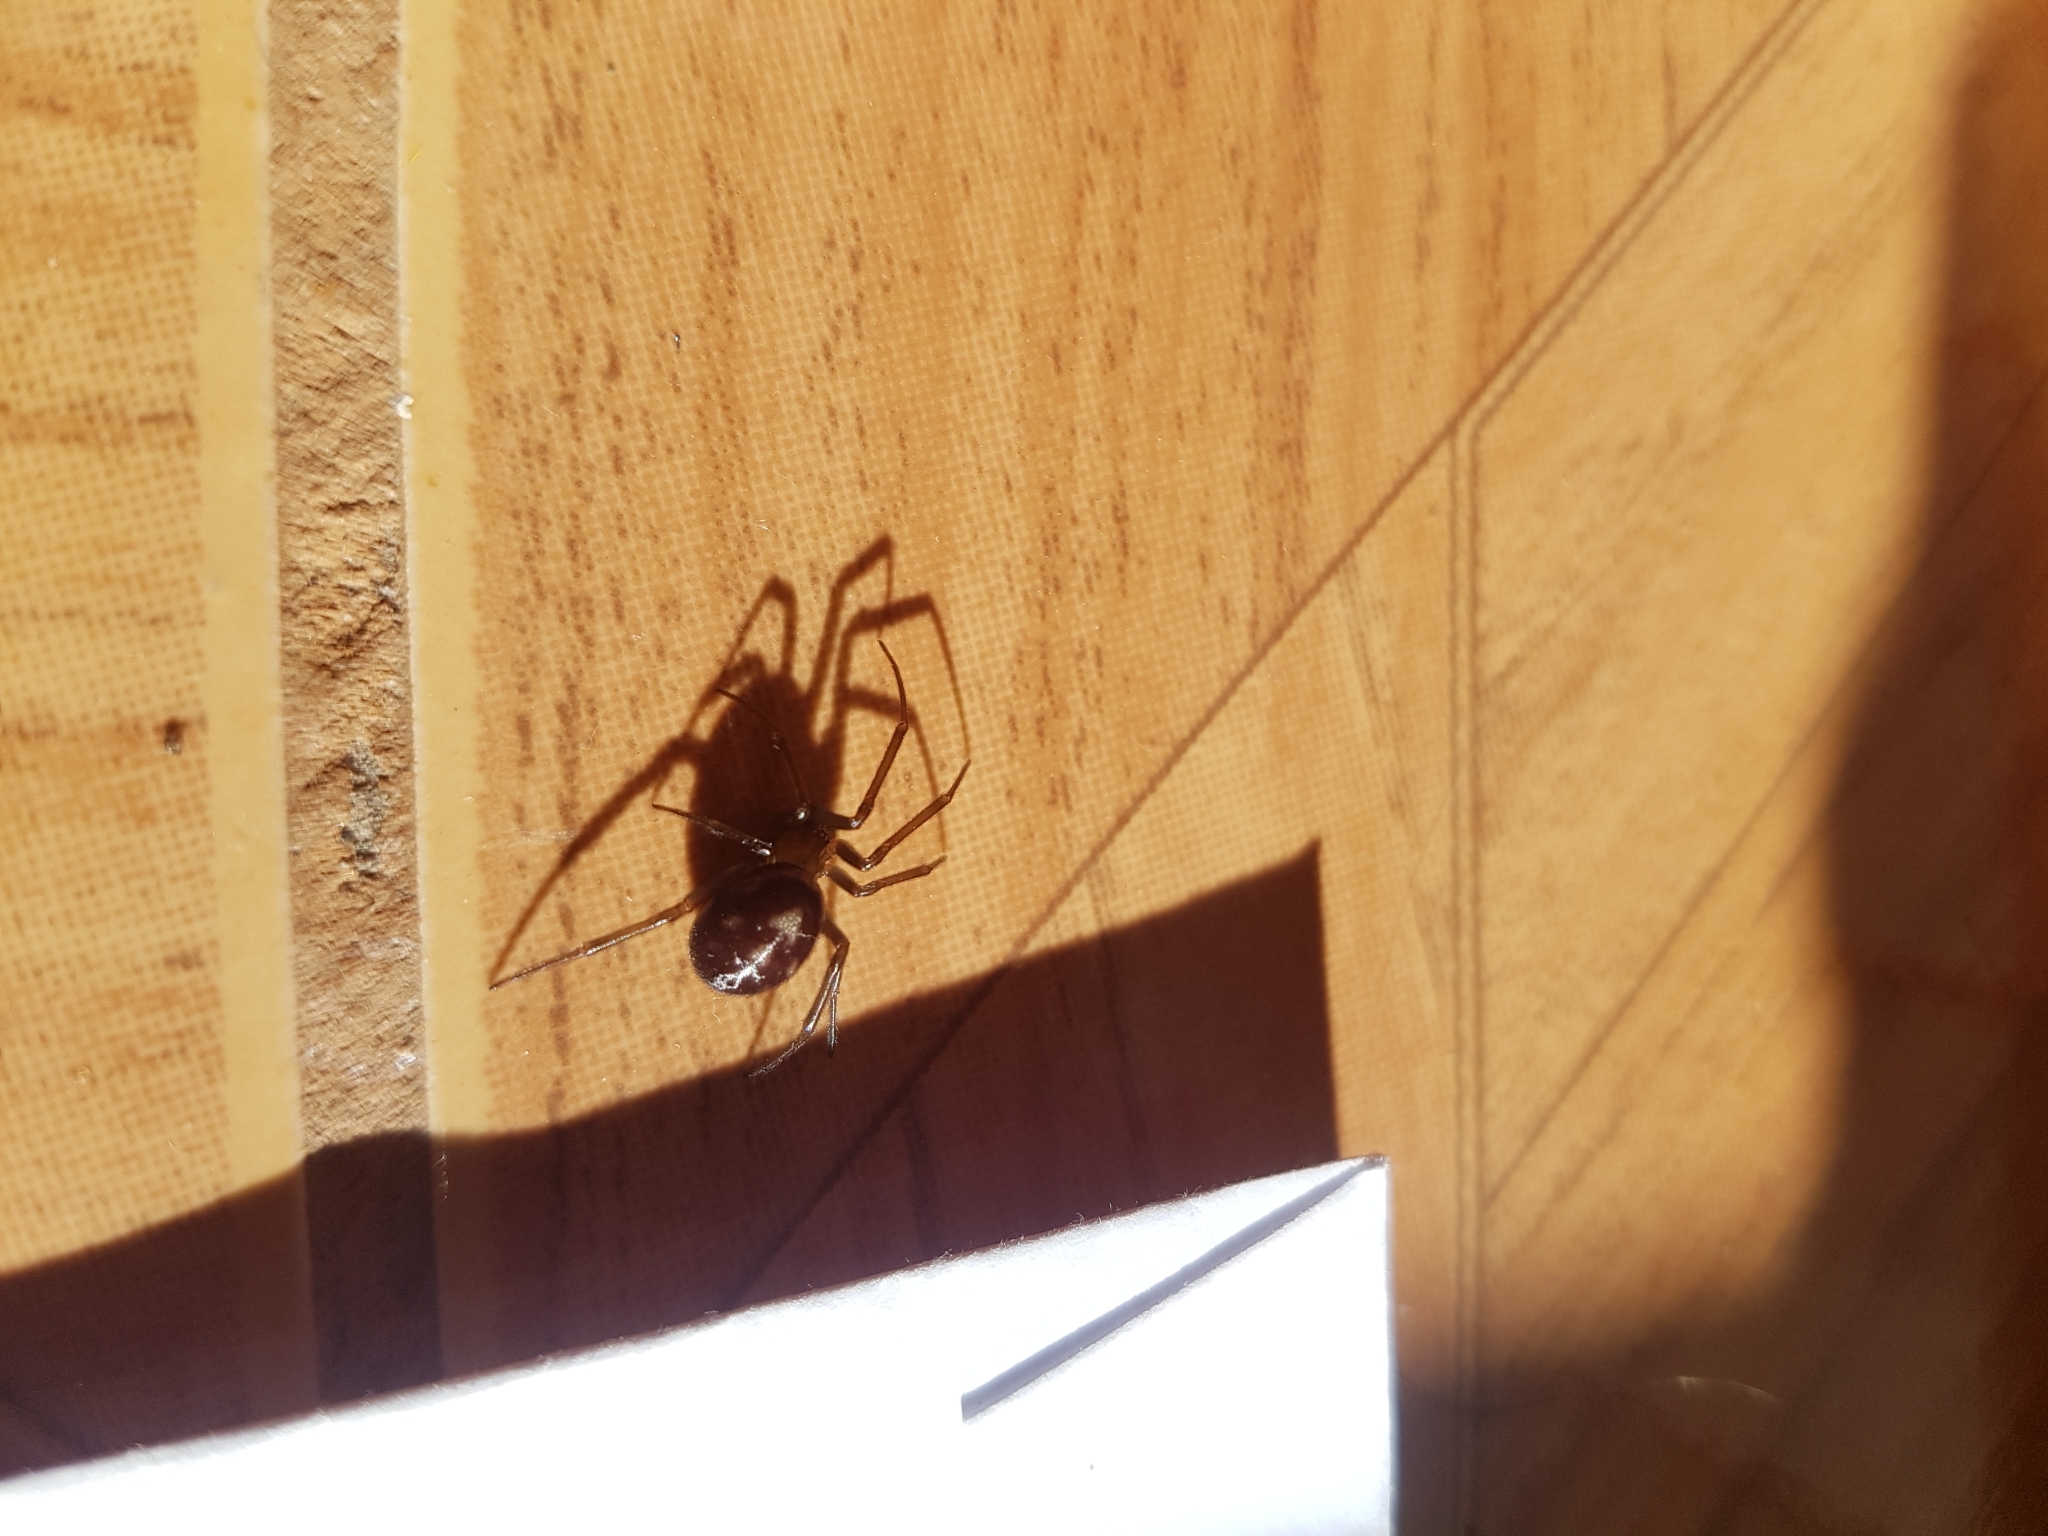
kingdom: Animalia
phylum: Arthropoda
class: Arachnida
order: Araneae
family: Theridiidae
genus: Steatoda
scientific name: Steatoda grossa
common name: False black widow
